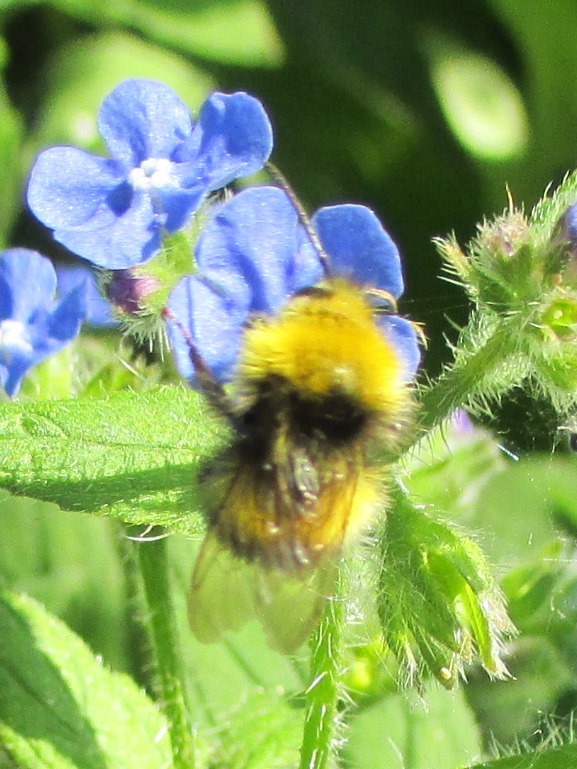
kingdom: Animalia
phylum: Arthropoda
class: Insecta
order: Hymenoptera
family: Apidae
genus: Bombus
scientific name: Bombus pratorum
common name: Early humble-bee
